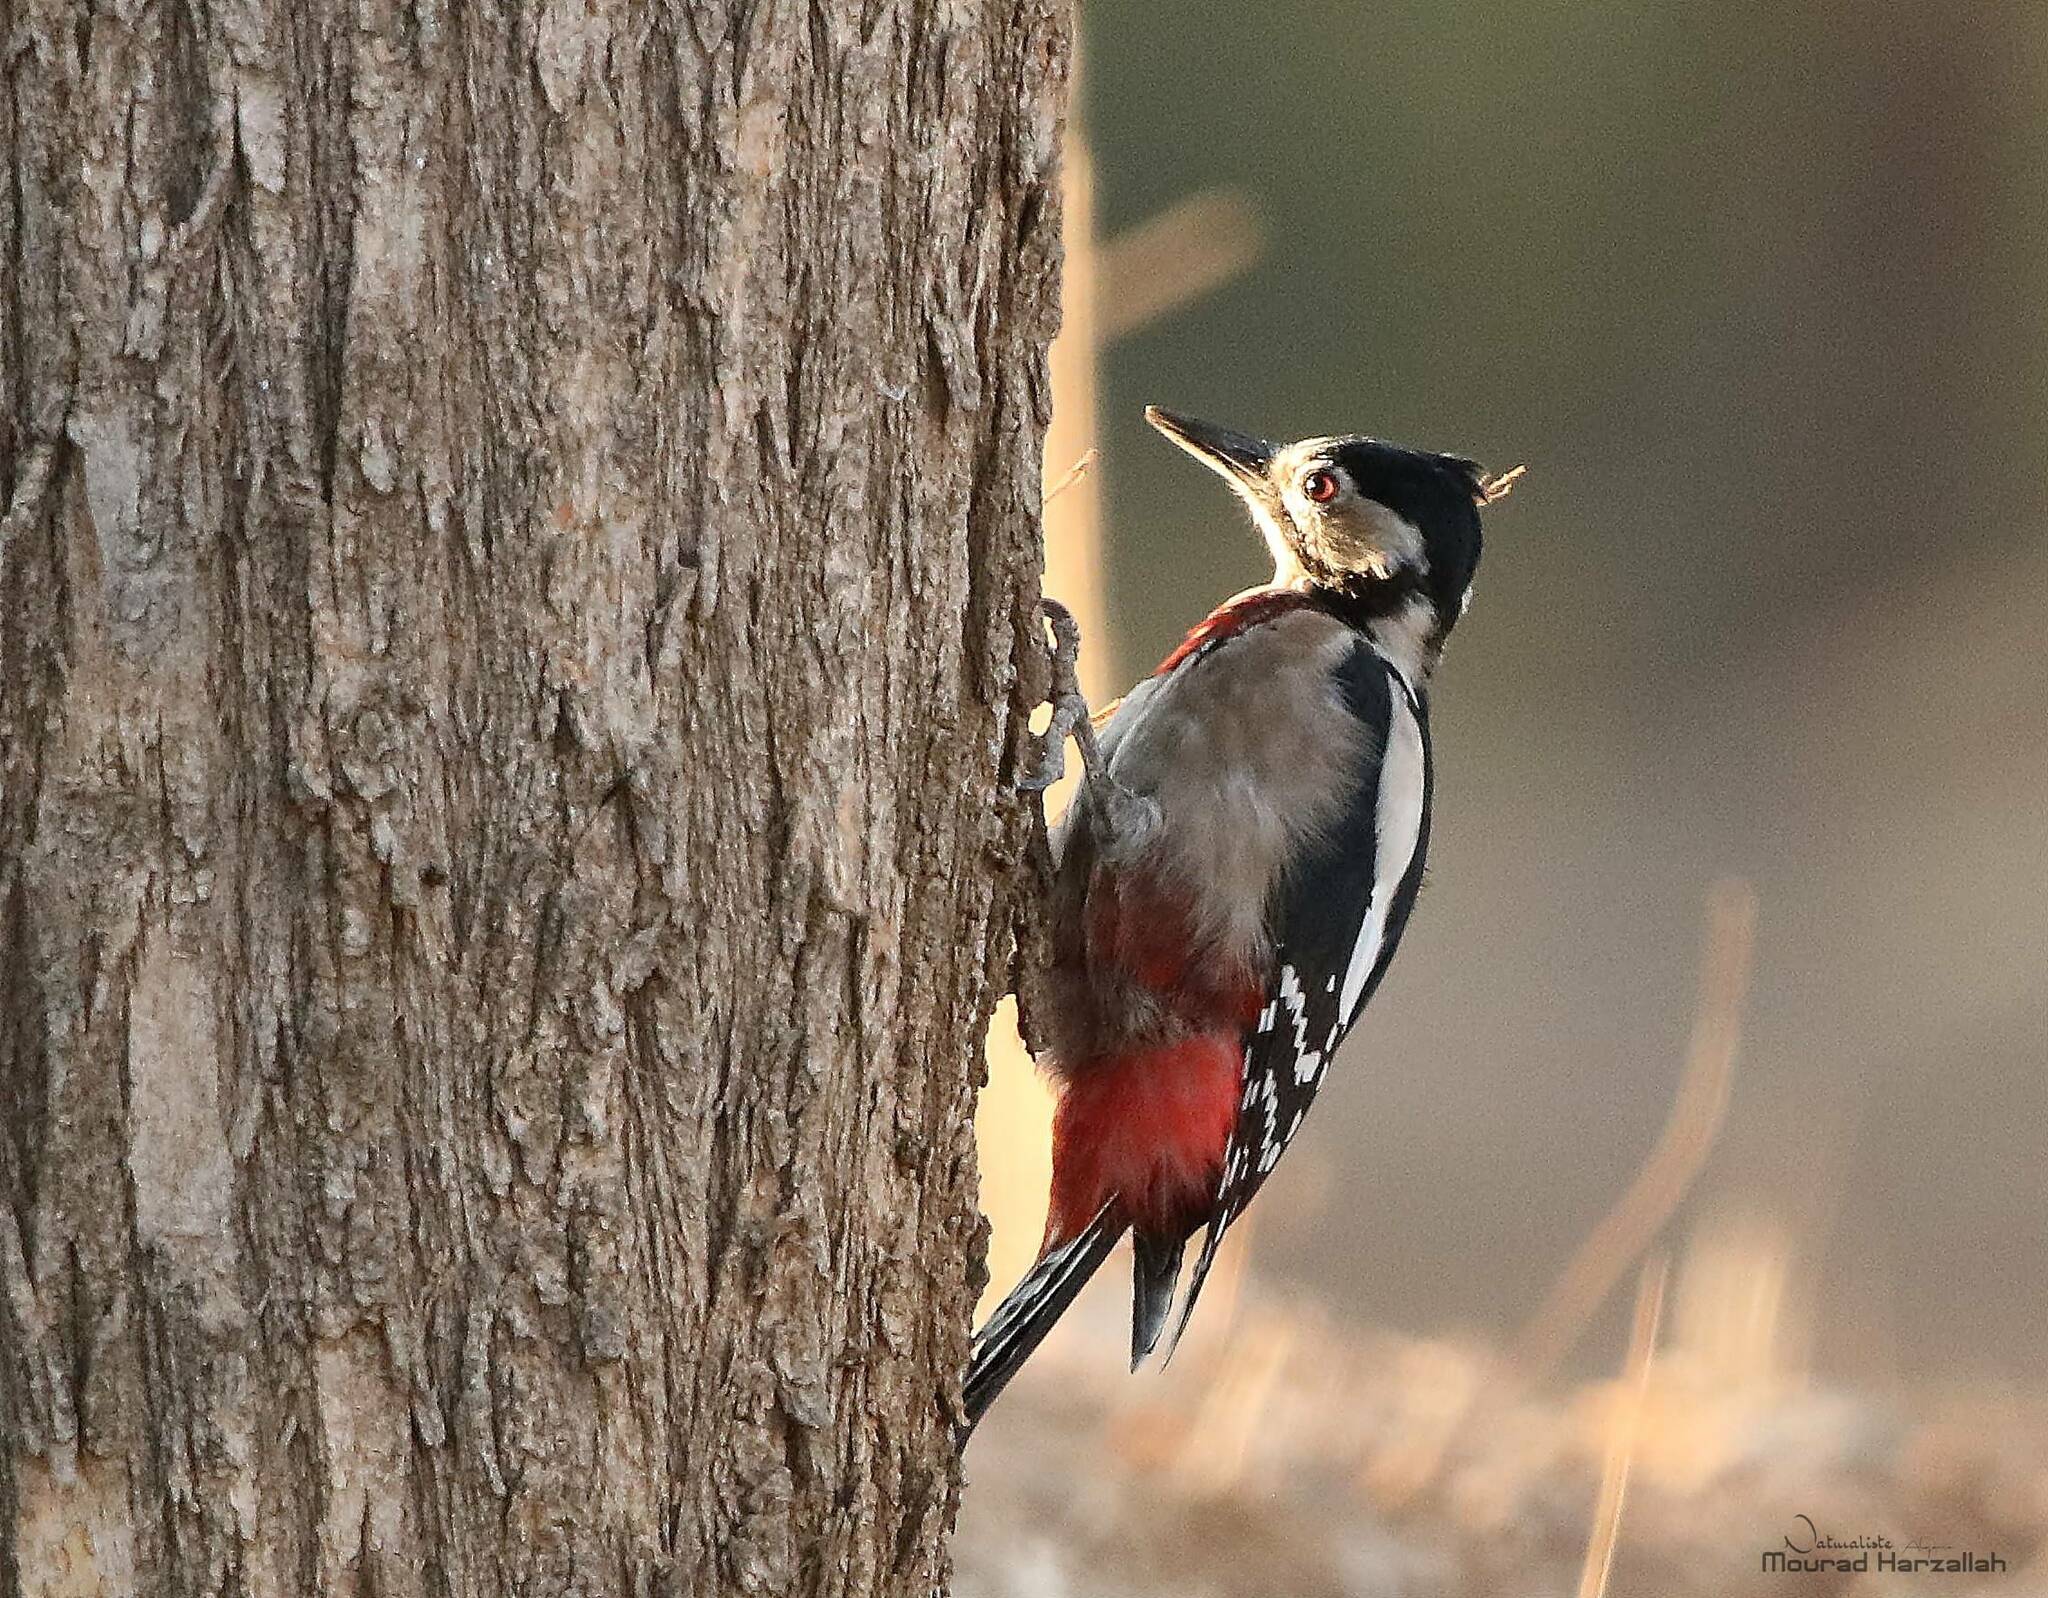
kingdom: Animalia
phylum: Chordata
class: Aves
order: Piciformes
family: Picidae
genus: Dendrocopos
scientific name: Dendrocopos major
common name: Great spotted woodpecker
